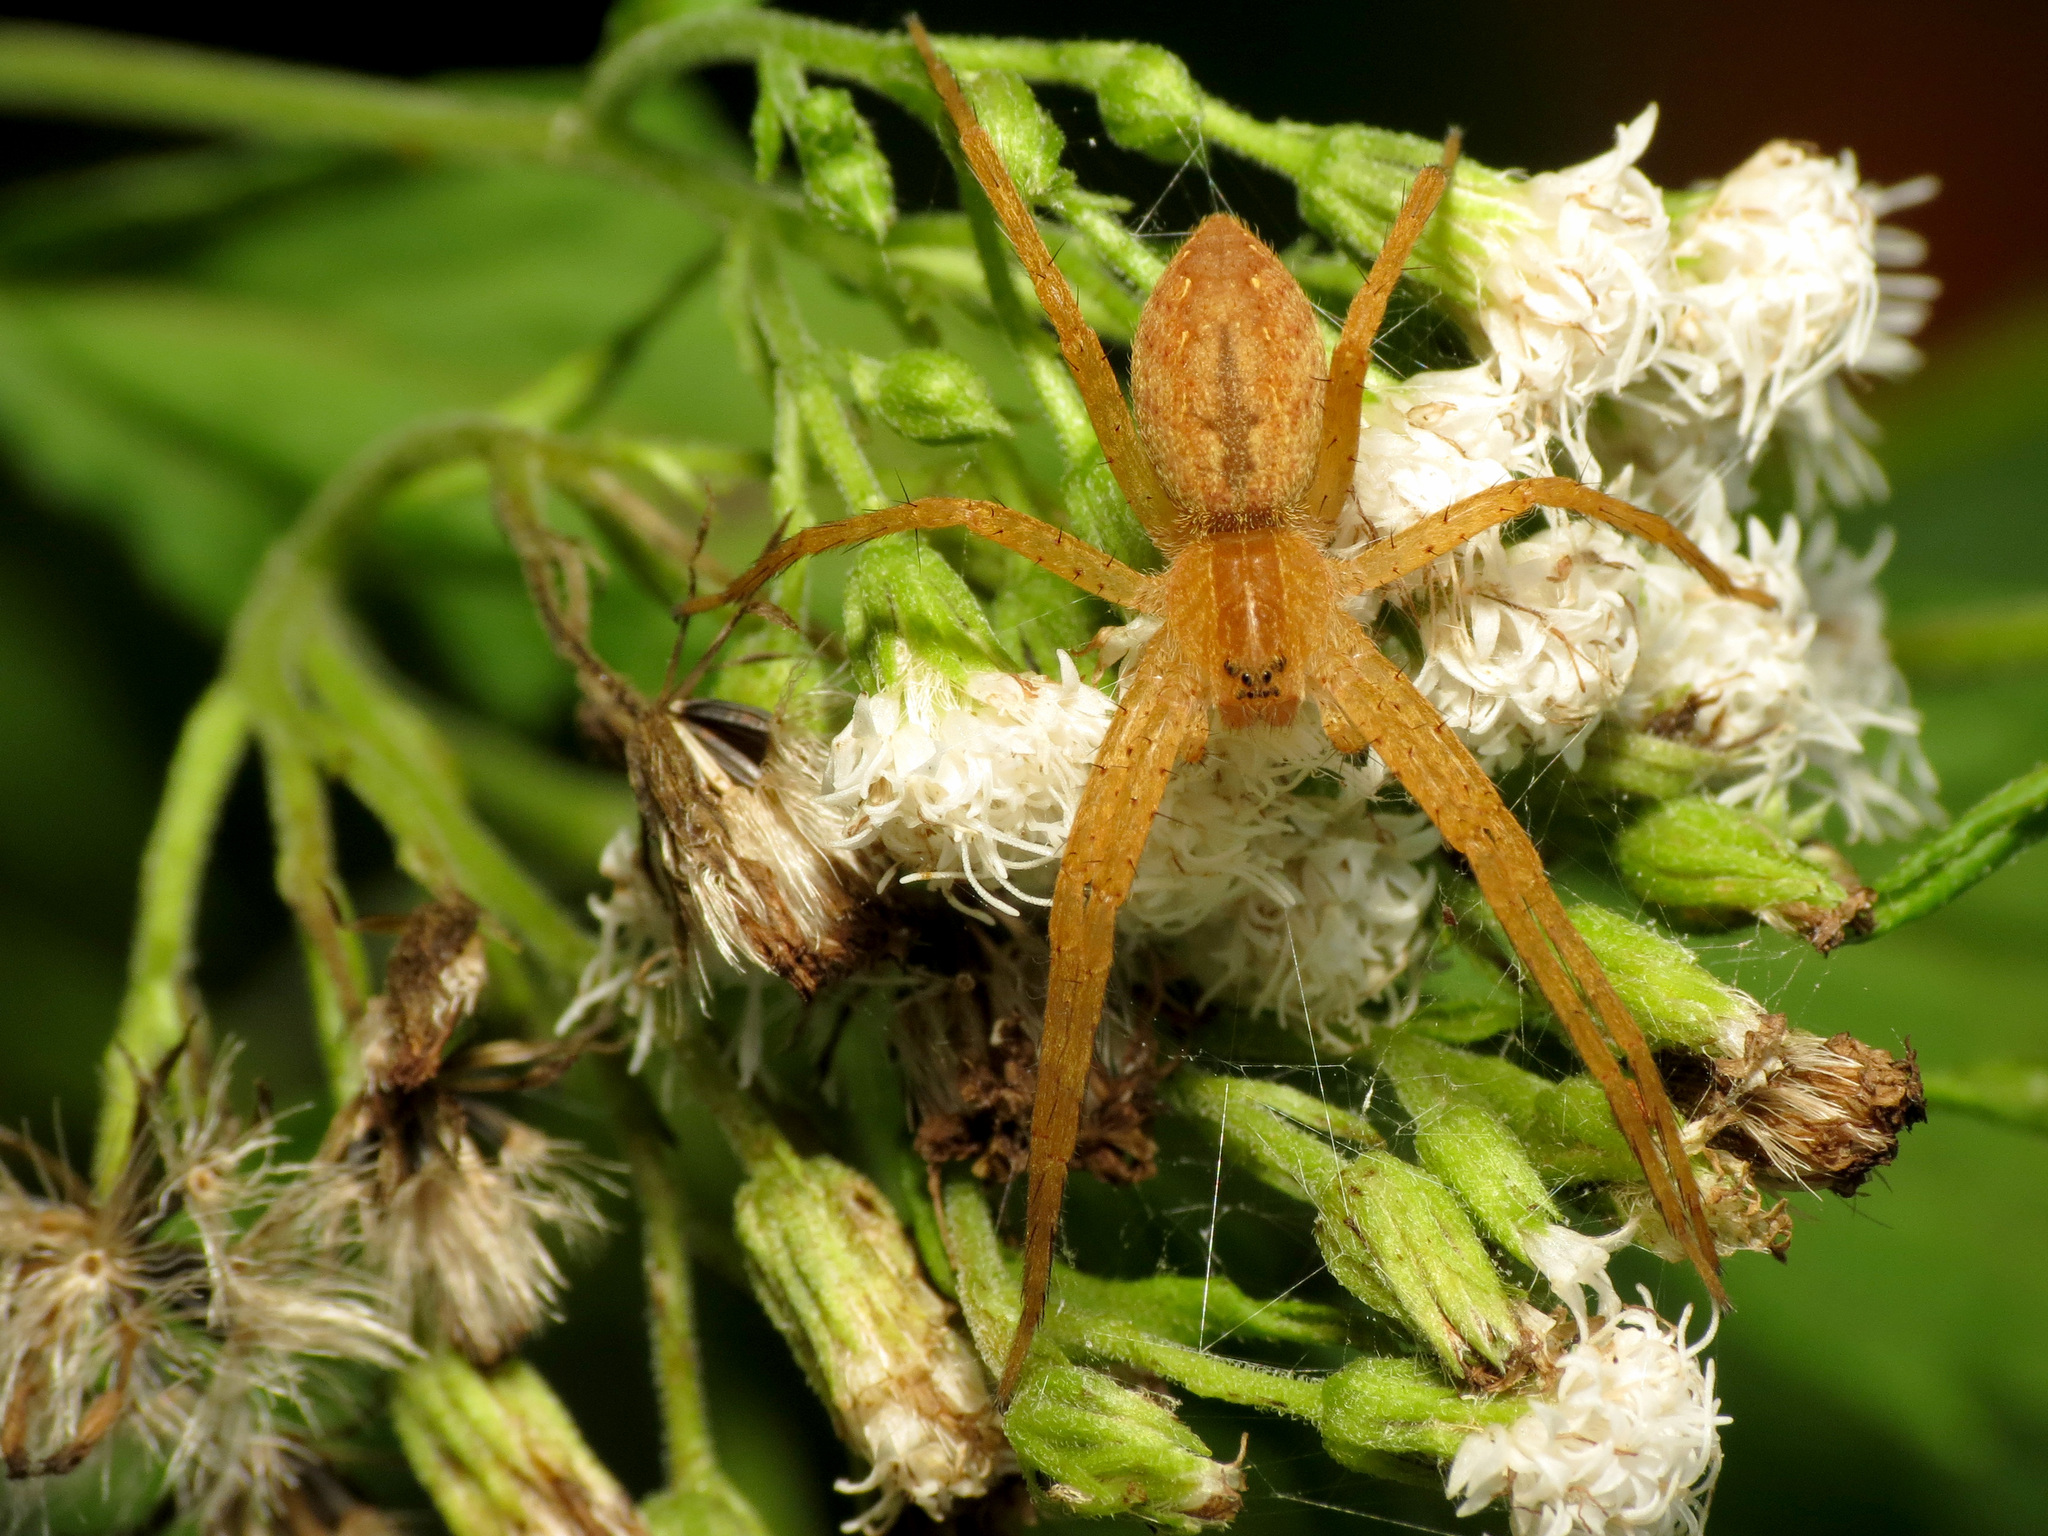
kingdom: Animalia
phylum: Arthropoda
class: Arachnida
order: Araneae
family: Pisauridae
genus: Pisaurina
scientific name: Pisaurina mira
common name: American nursery web spider
